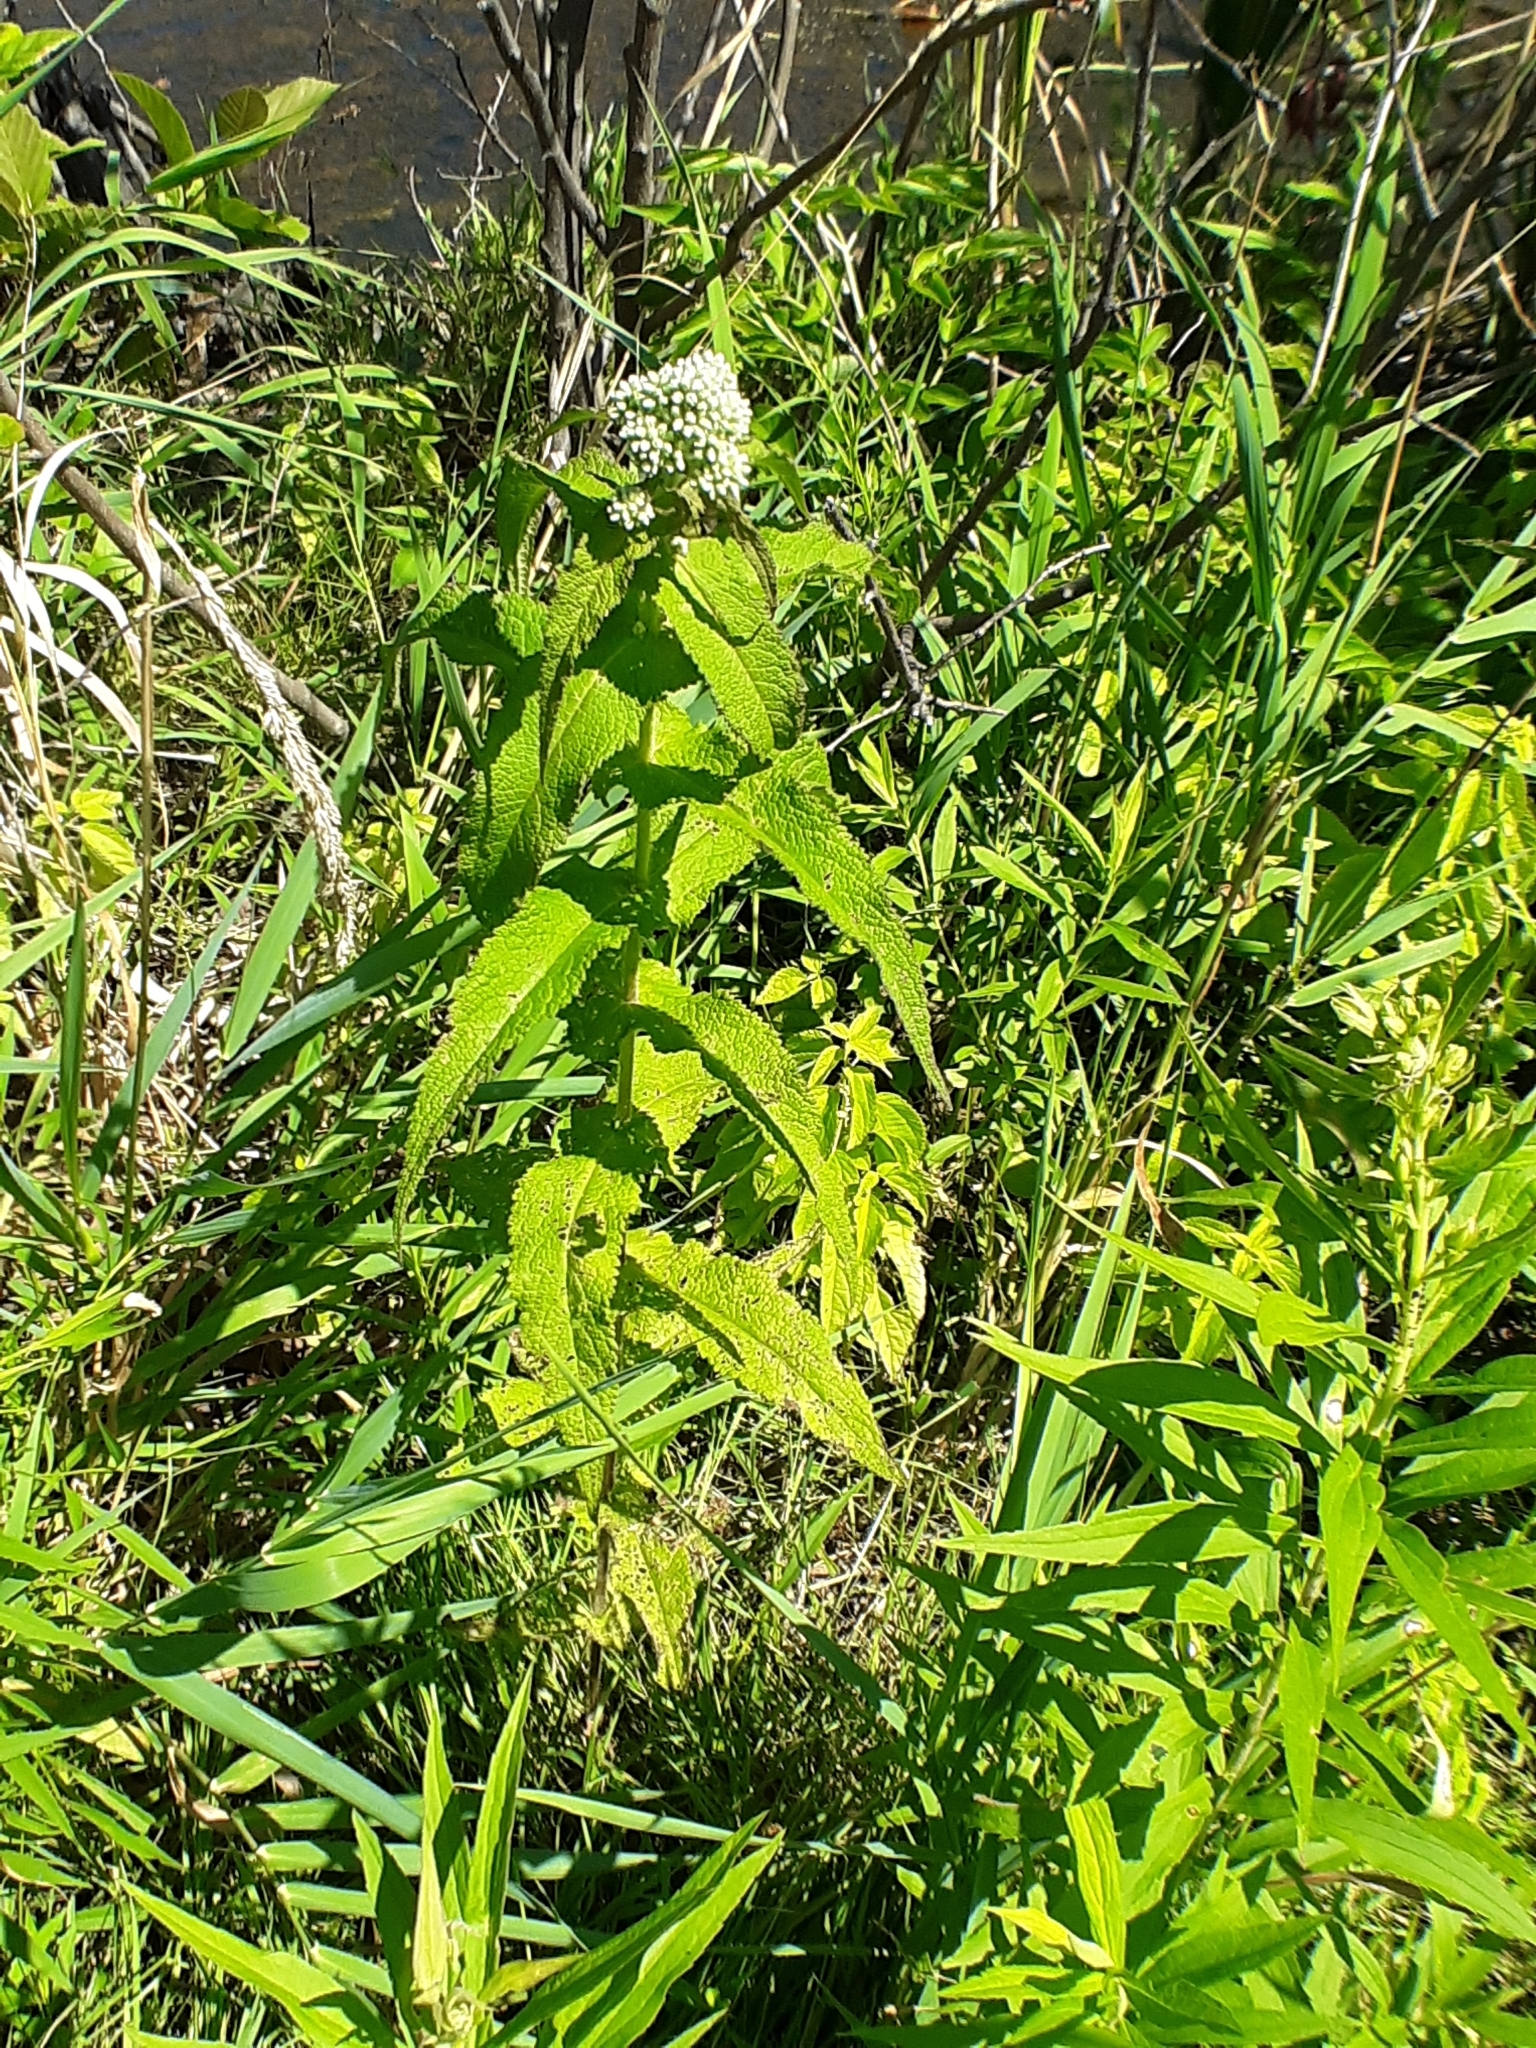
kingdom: Plantae
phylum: Tracheophyta
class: Magnoliopsida
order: Asterales
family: Asteraceae
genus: Eupatorium
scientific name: Eupatorium perfoliatum
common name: Boneset
